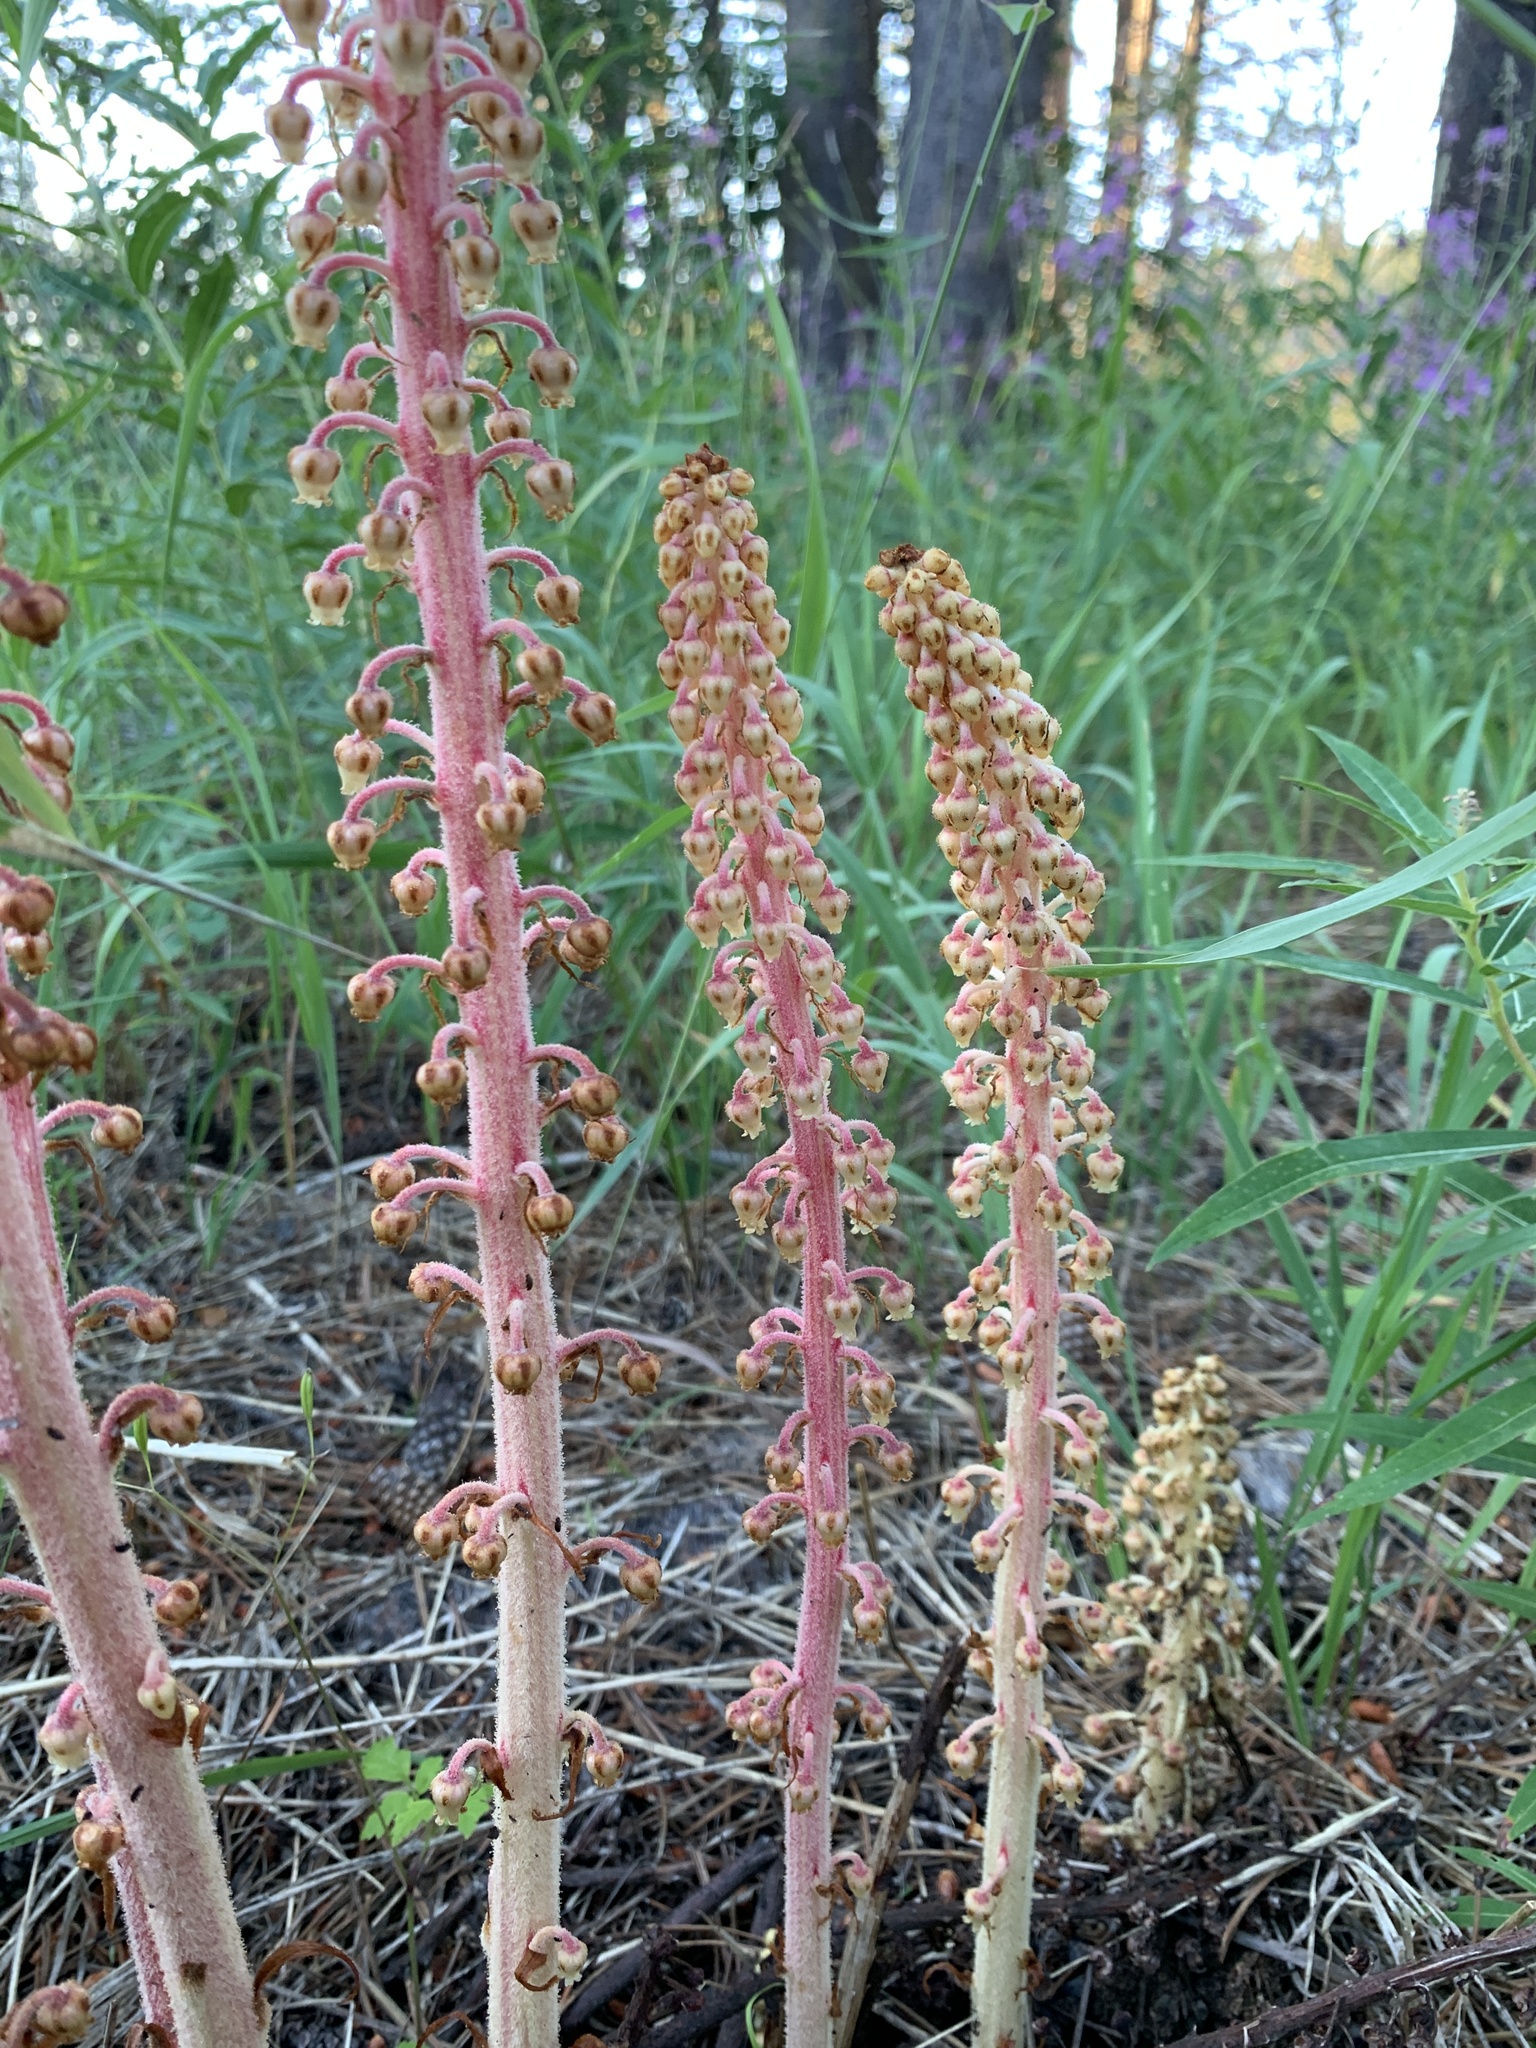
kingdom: Plantae
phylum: Tracheophyta
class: Magnoliopsida
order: Ericales
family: Ericaceae
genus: Pterospora
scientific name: Pterospora andromedea
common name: Giant bird's-nest
